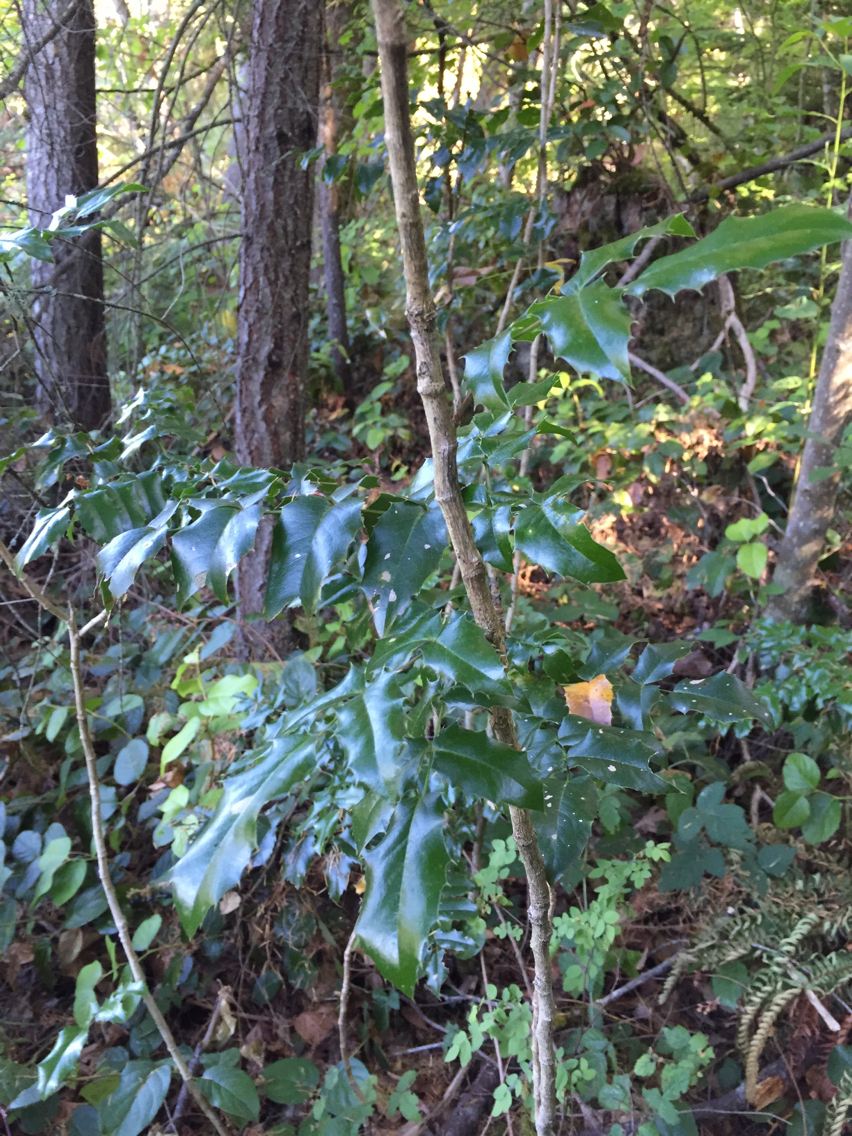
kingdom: Plantae
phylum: Tracheophyta
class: Magnoliopsida
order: Ranunculales
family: Berberidaceae
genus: Mahonia
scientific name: Mahonia aquifolium
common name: Oregon-grape
